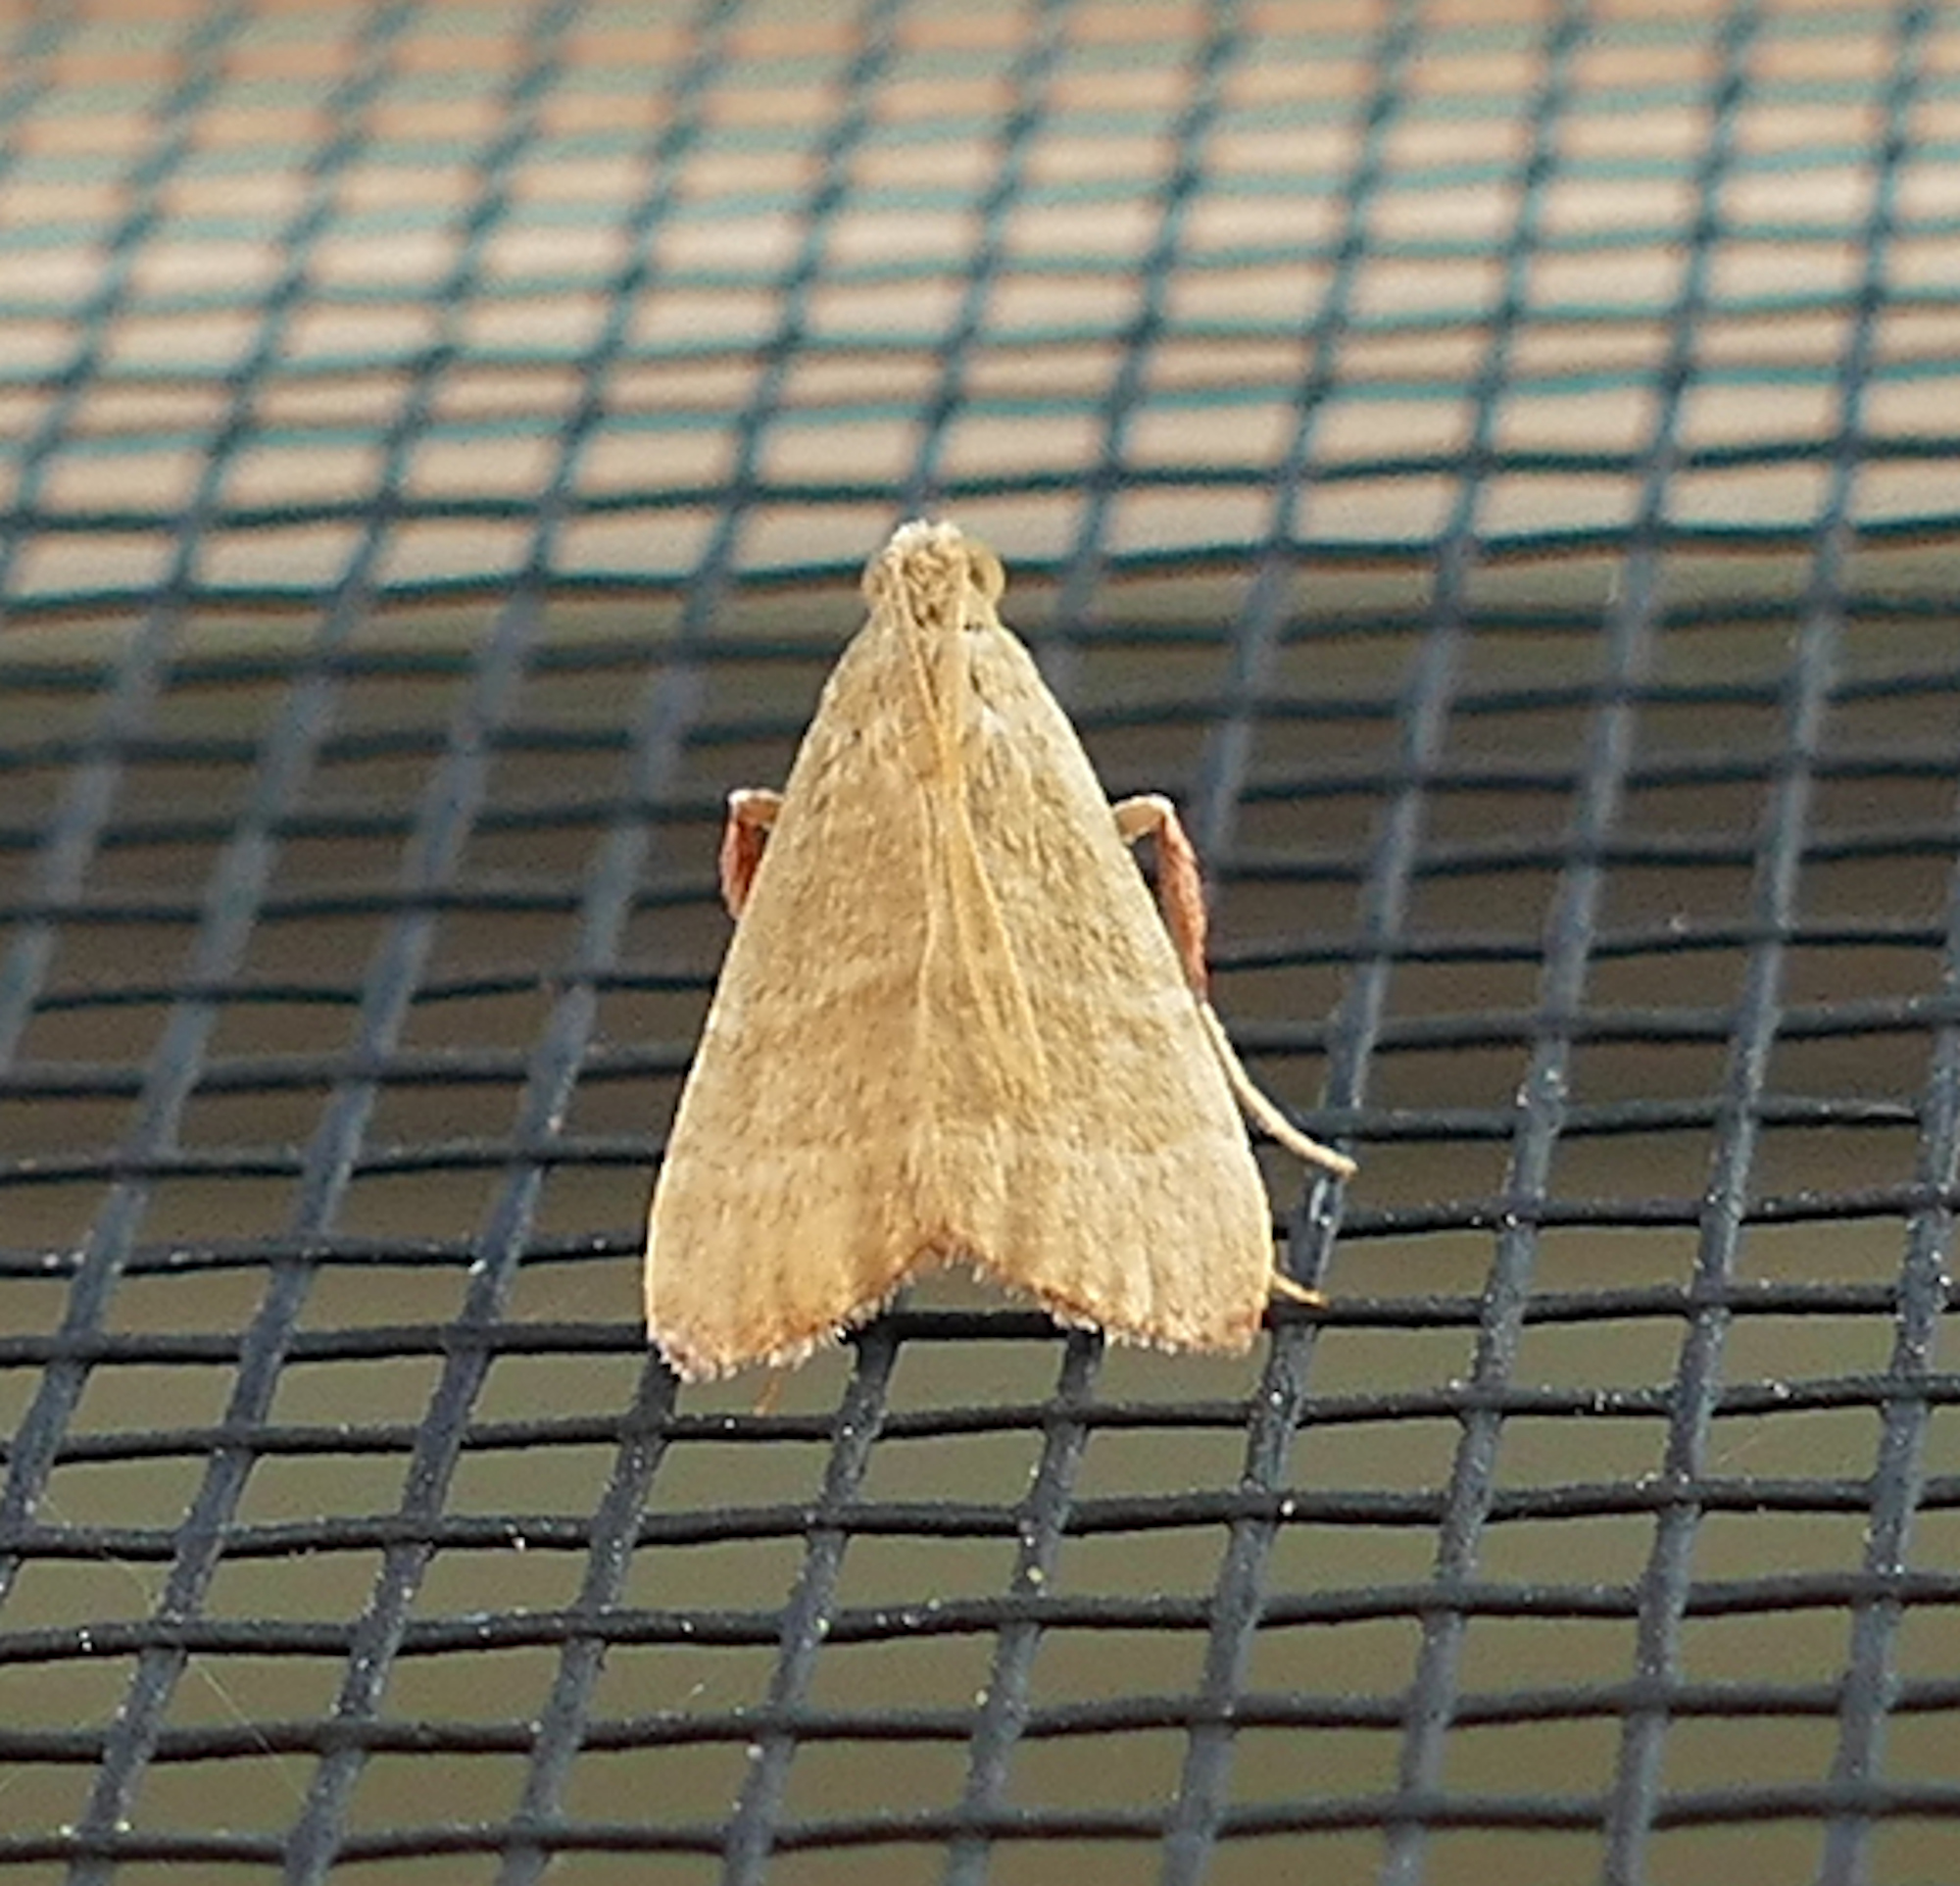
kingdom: Animalia
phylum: Arthropoda
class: Insecta
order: Lepidoptera
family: Pyralidae
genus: Arta
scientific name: Arta olivalis
